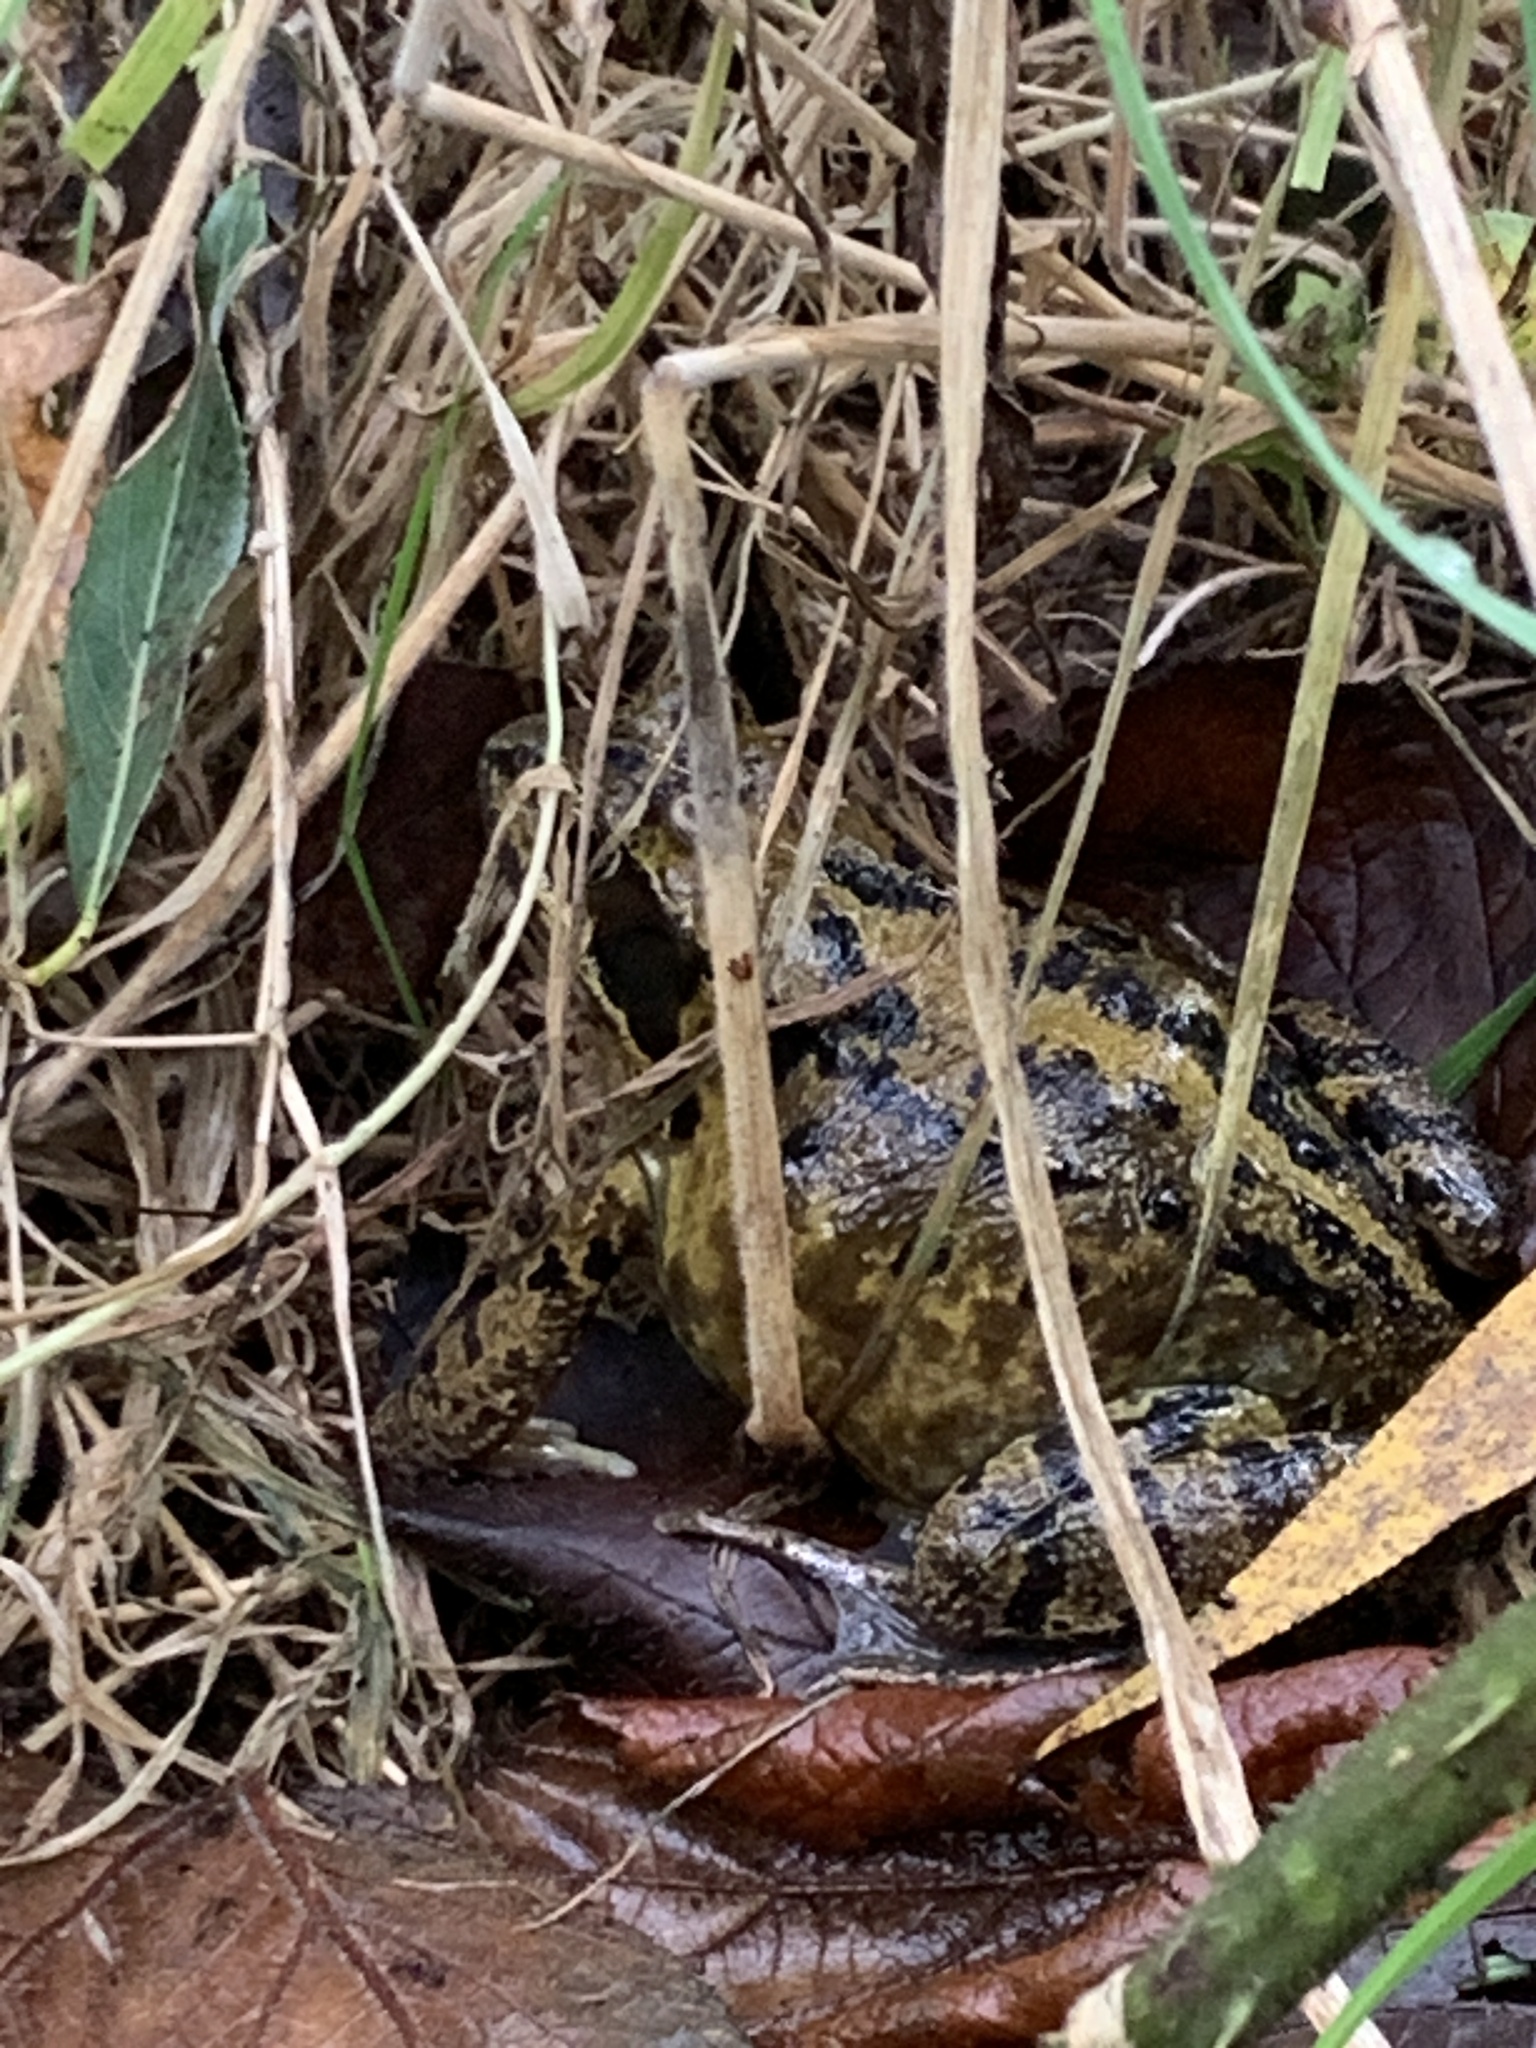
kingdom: Animalia
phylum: Chordata
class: Amphibia
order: Anura
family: Ranidae
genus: Rana
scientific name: Rana temporaria
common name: Common frog
